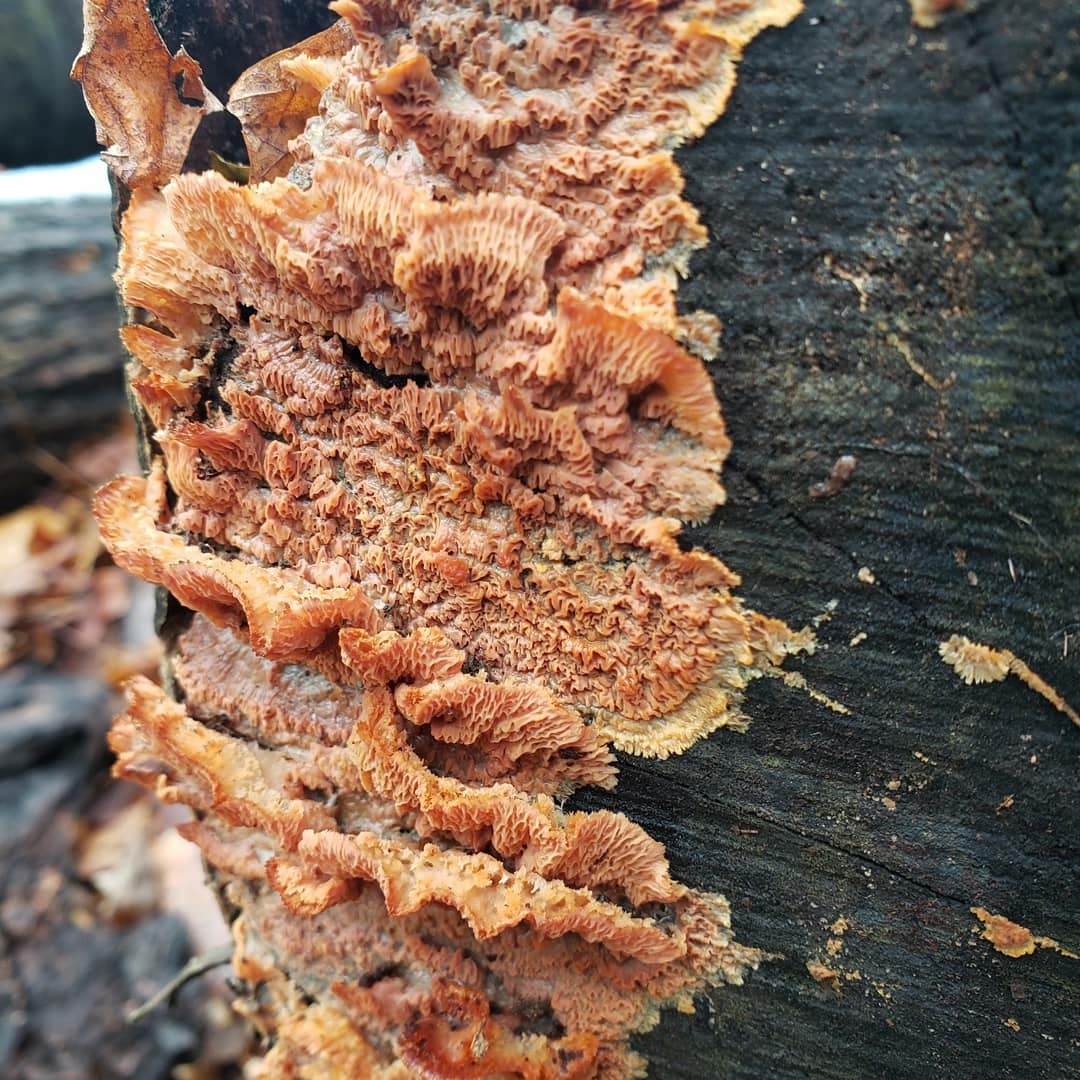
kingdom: Fungi
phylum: Basidiomycota
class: Agaricomycetes
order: Polyporales
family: Meruliaceae
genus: Phlebia
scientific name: Phlebia tremellosa
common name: Jelly rot
